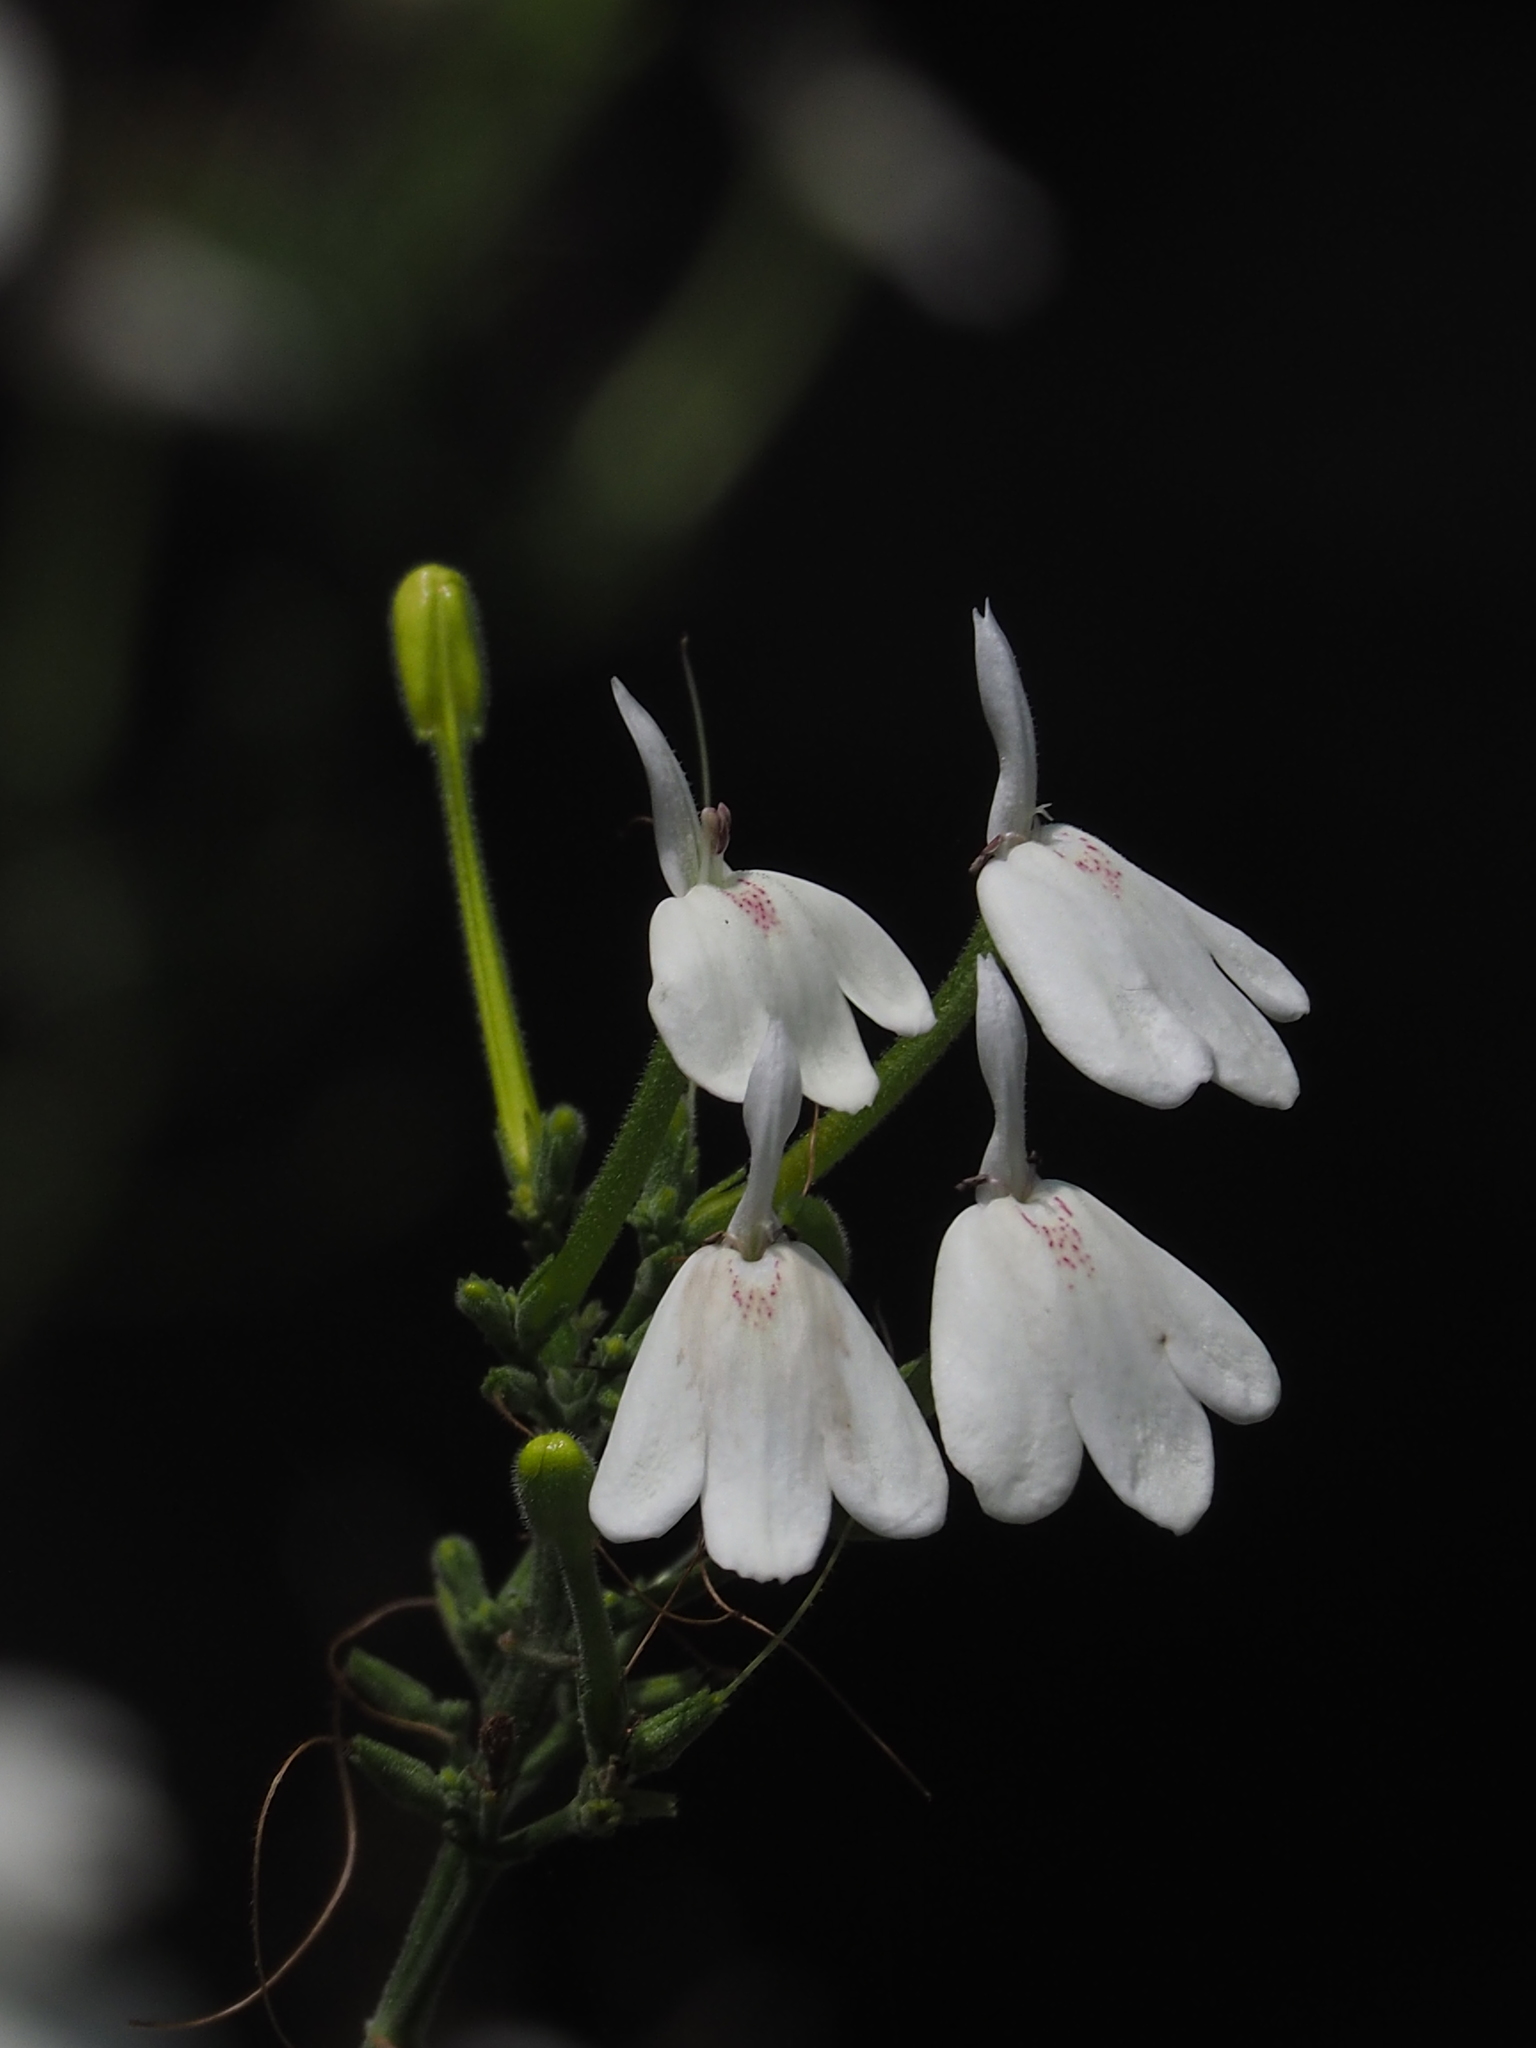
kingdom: Plantae
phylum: Tracheophyta
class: Magnoliopsida
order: Lamiales
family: Acanthaceae
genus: Rhinacanthus
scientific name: Rhinacanthus nasutus
